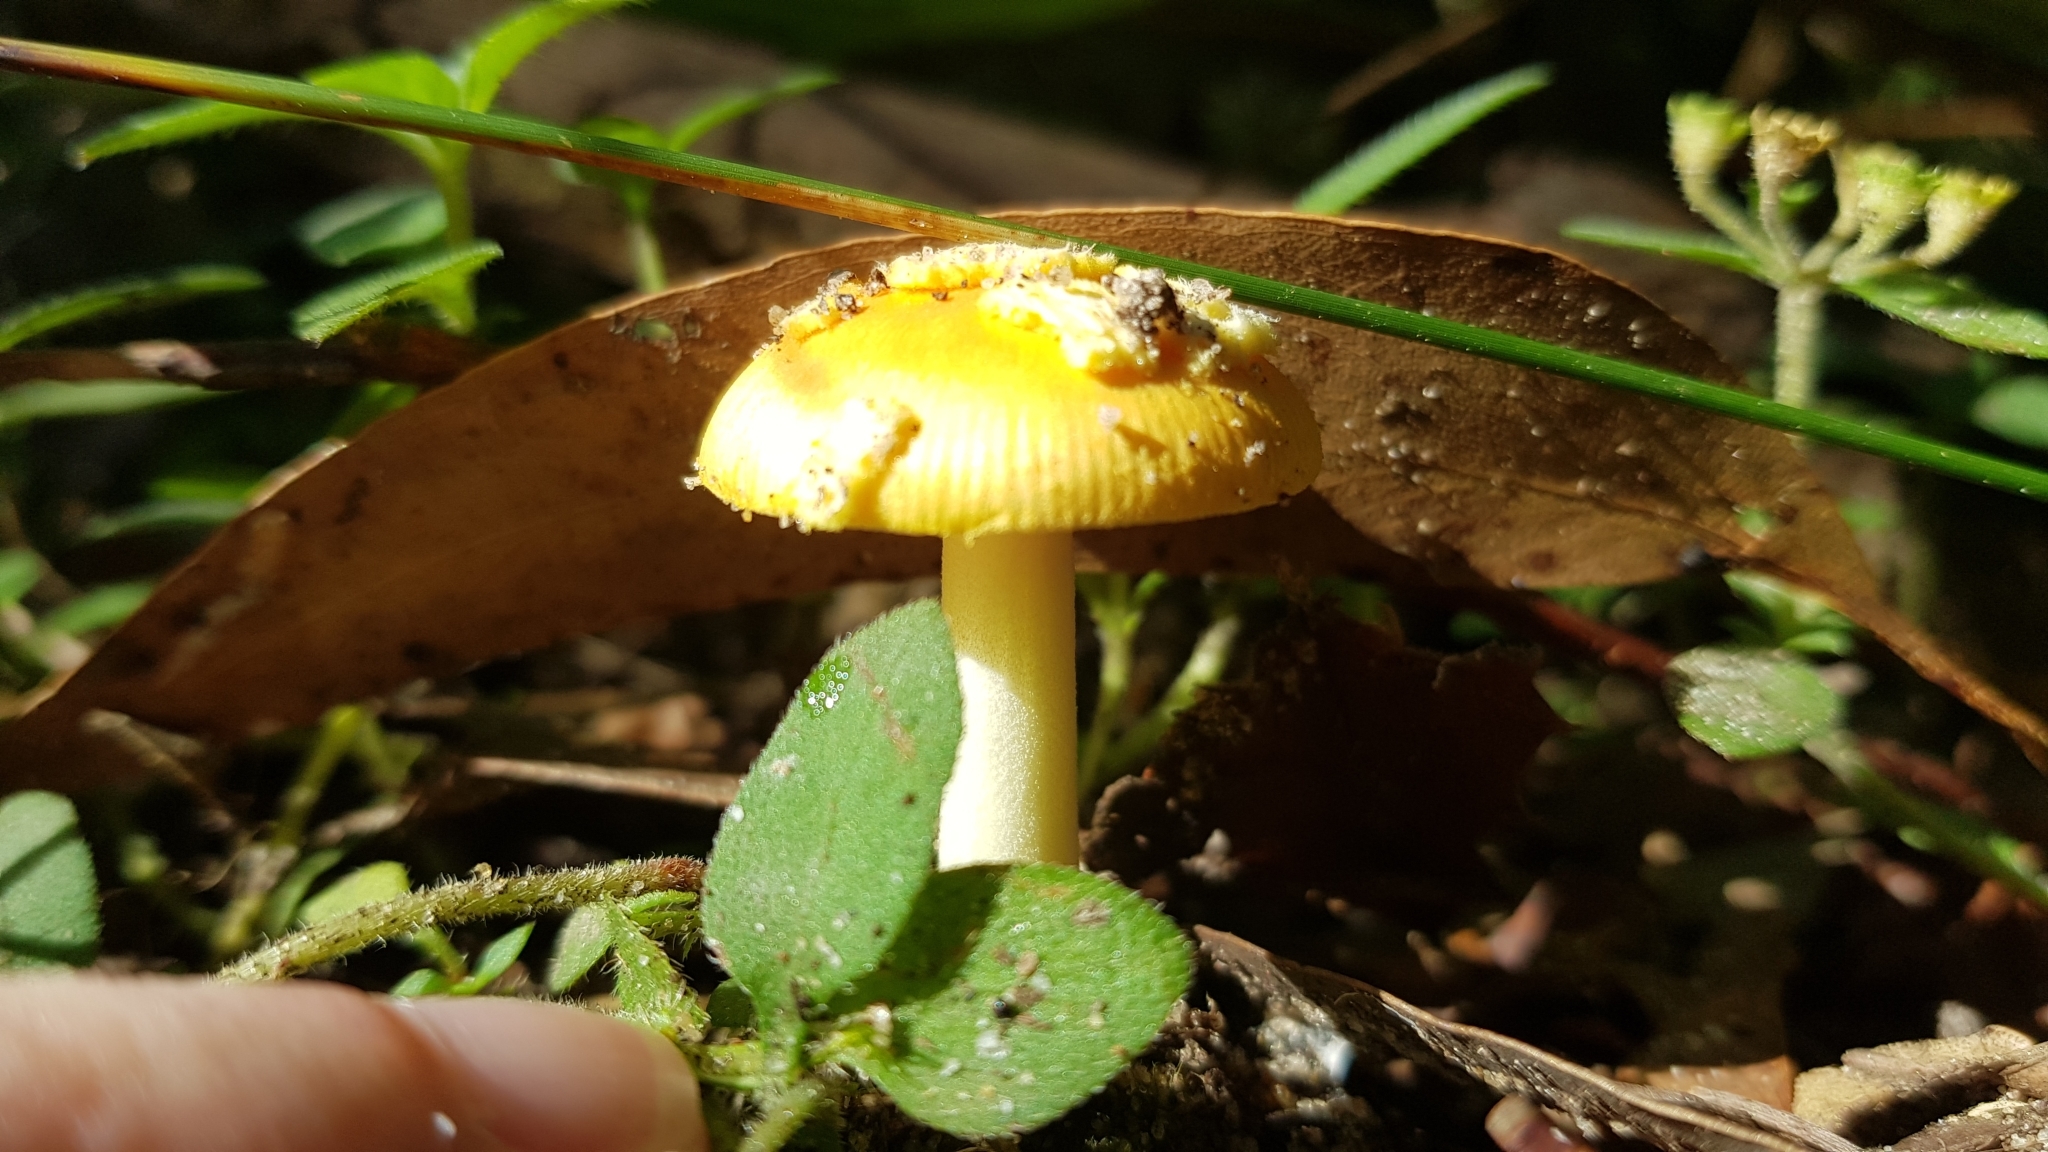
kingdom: Fungi
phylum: Basidiomycota
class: Agaricomycetes
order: Agaricales
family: Amanitaceae
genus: Amanita
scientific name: Amanita xanthocephala
